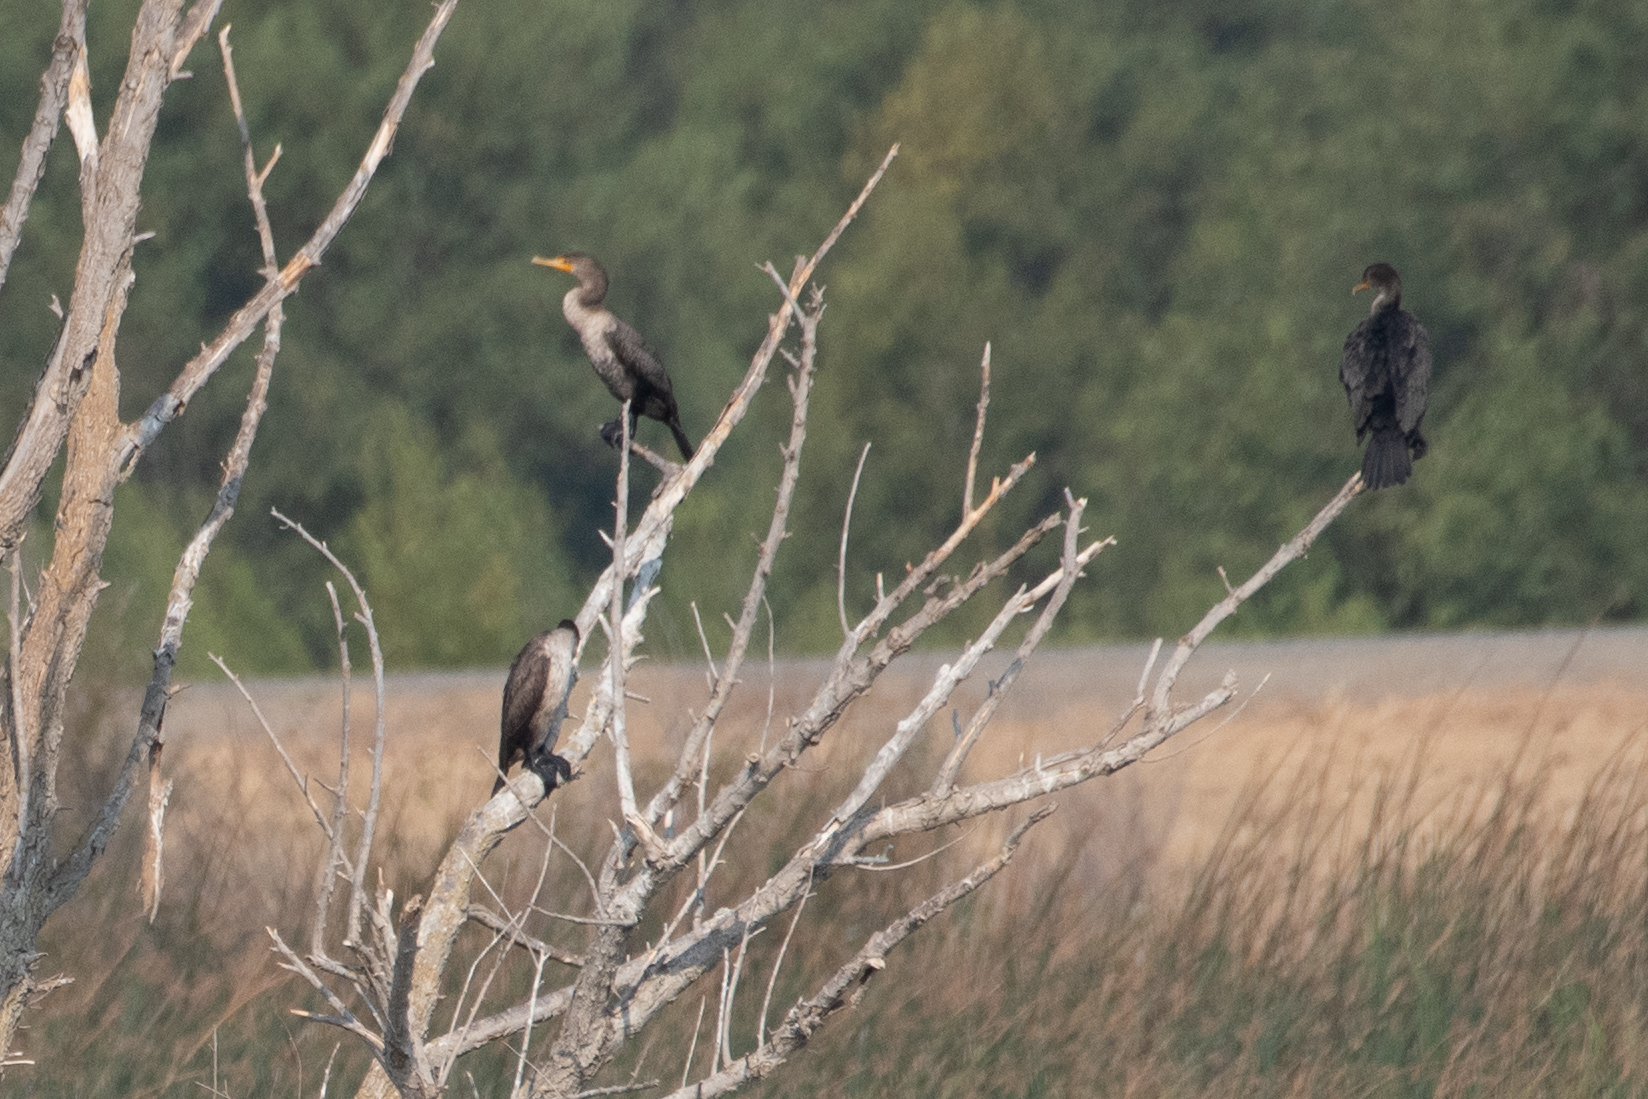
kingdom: Animalia
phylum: Chordata
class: Aves
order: Suliformes
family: Phalacrocoracidae
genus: Phalacrocorax
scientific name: Phalacrocorax auritus
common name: Double-crested cormorant
